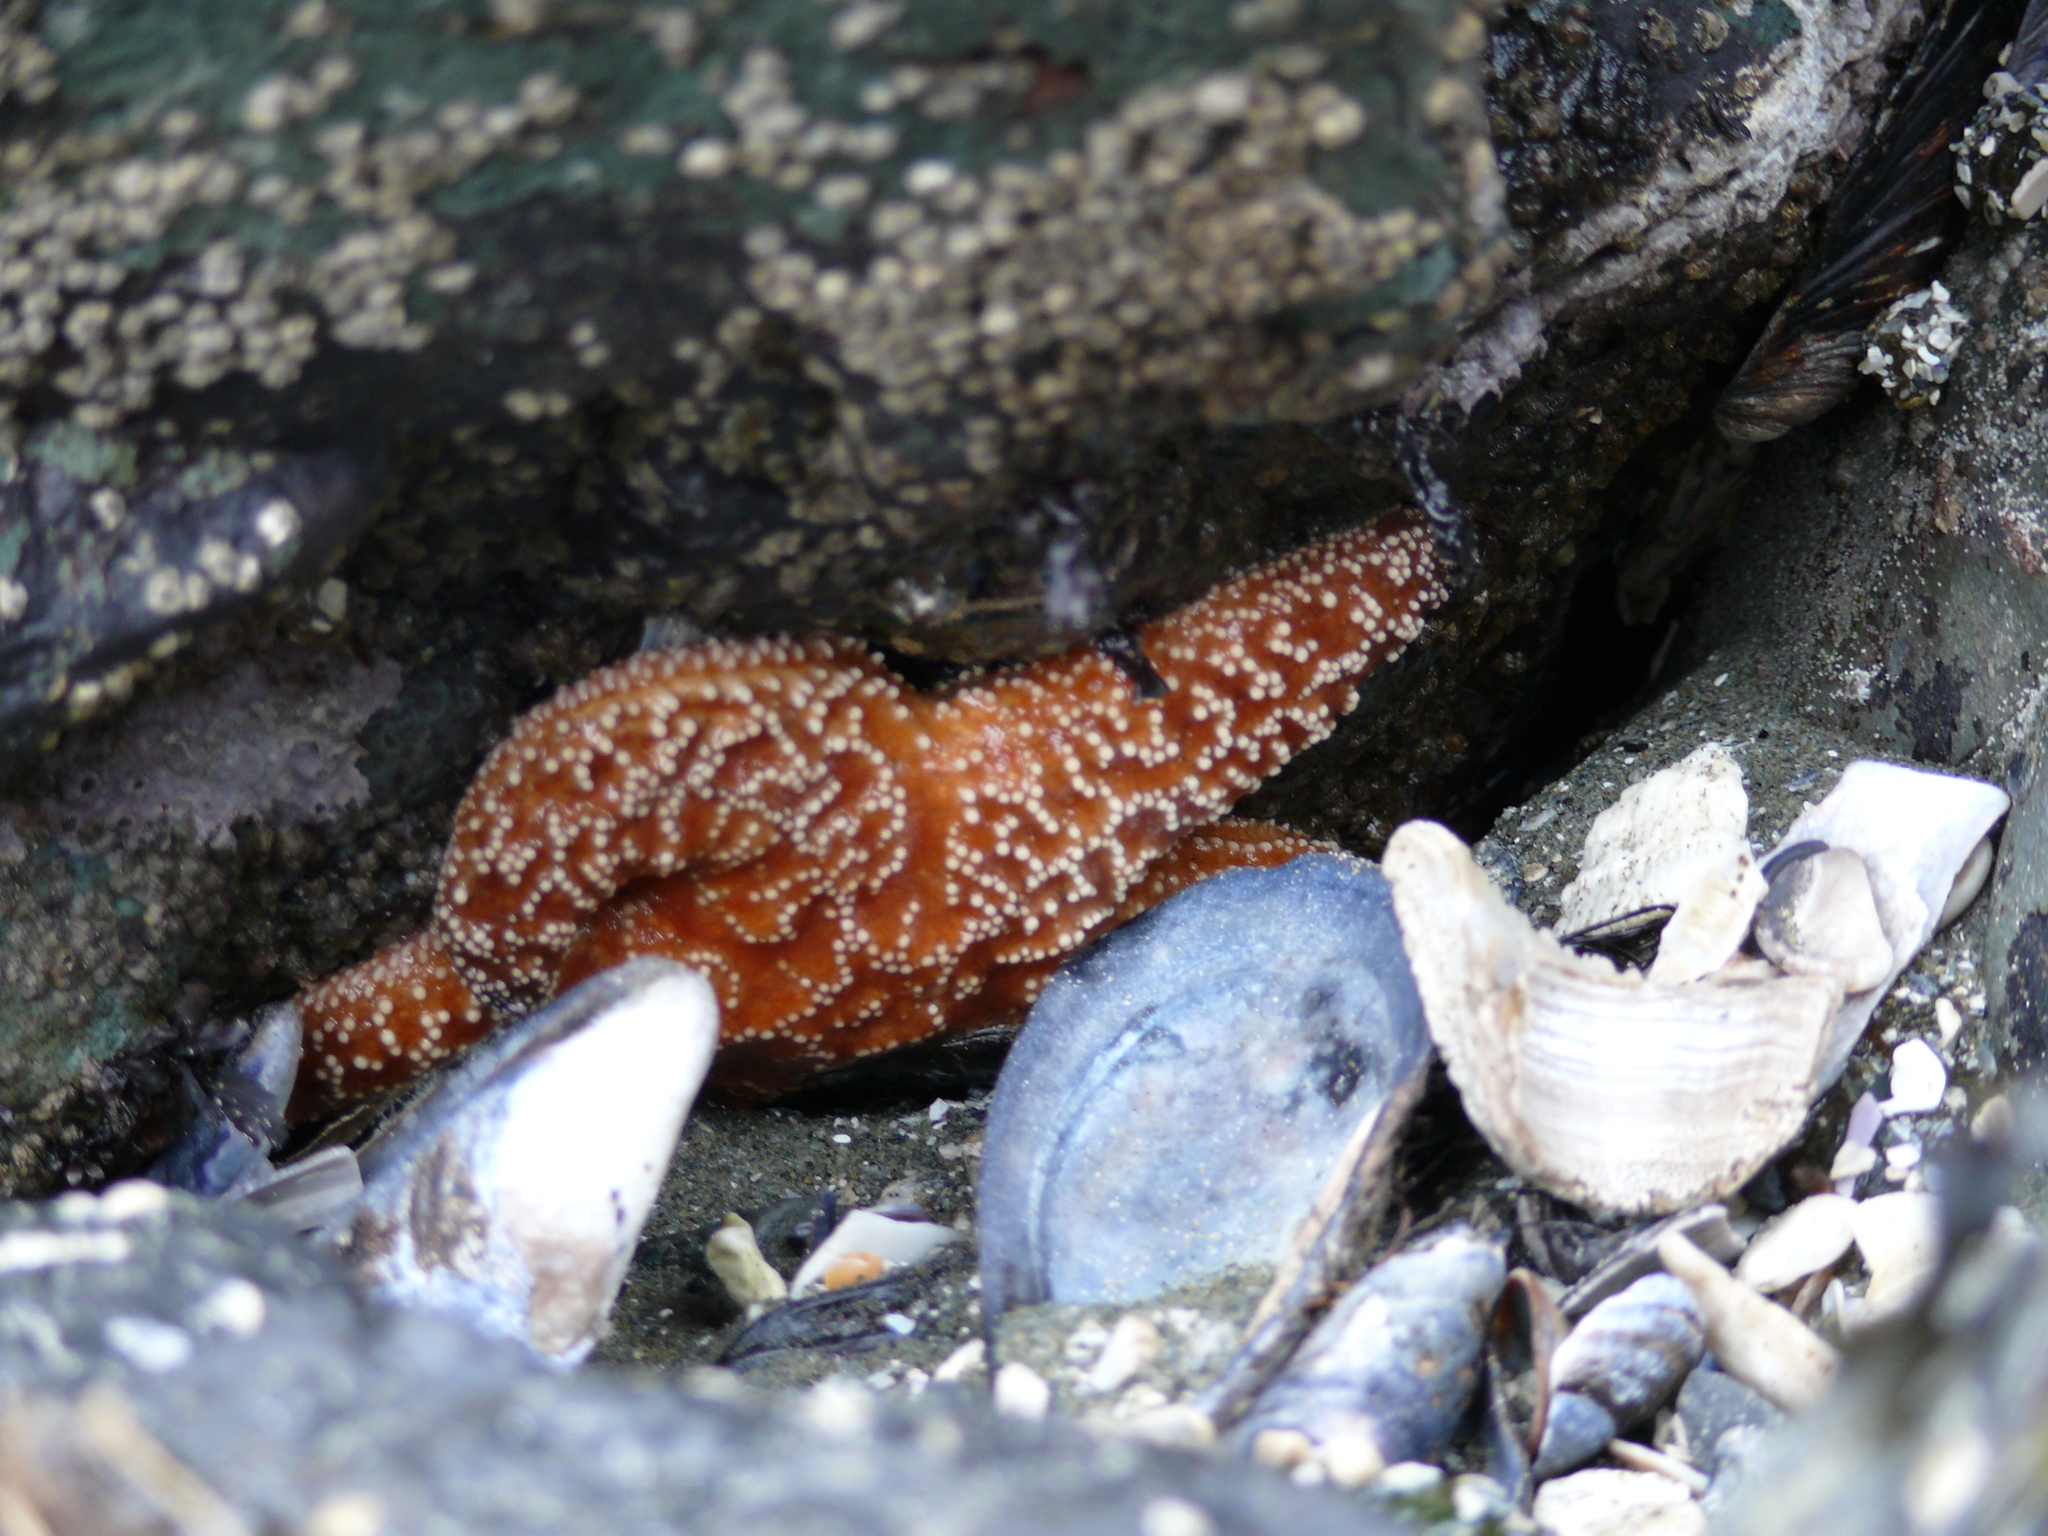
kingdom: Animalia
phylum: Echinodermata
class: Asteroidea
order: Forcipulatida
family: Asteriidae
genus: Pisaster
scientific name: Pisaster ochraceus
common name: Ochre stars
